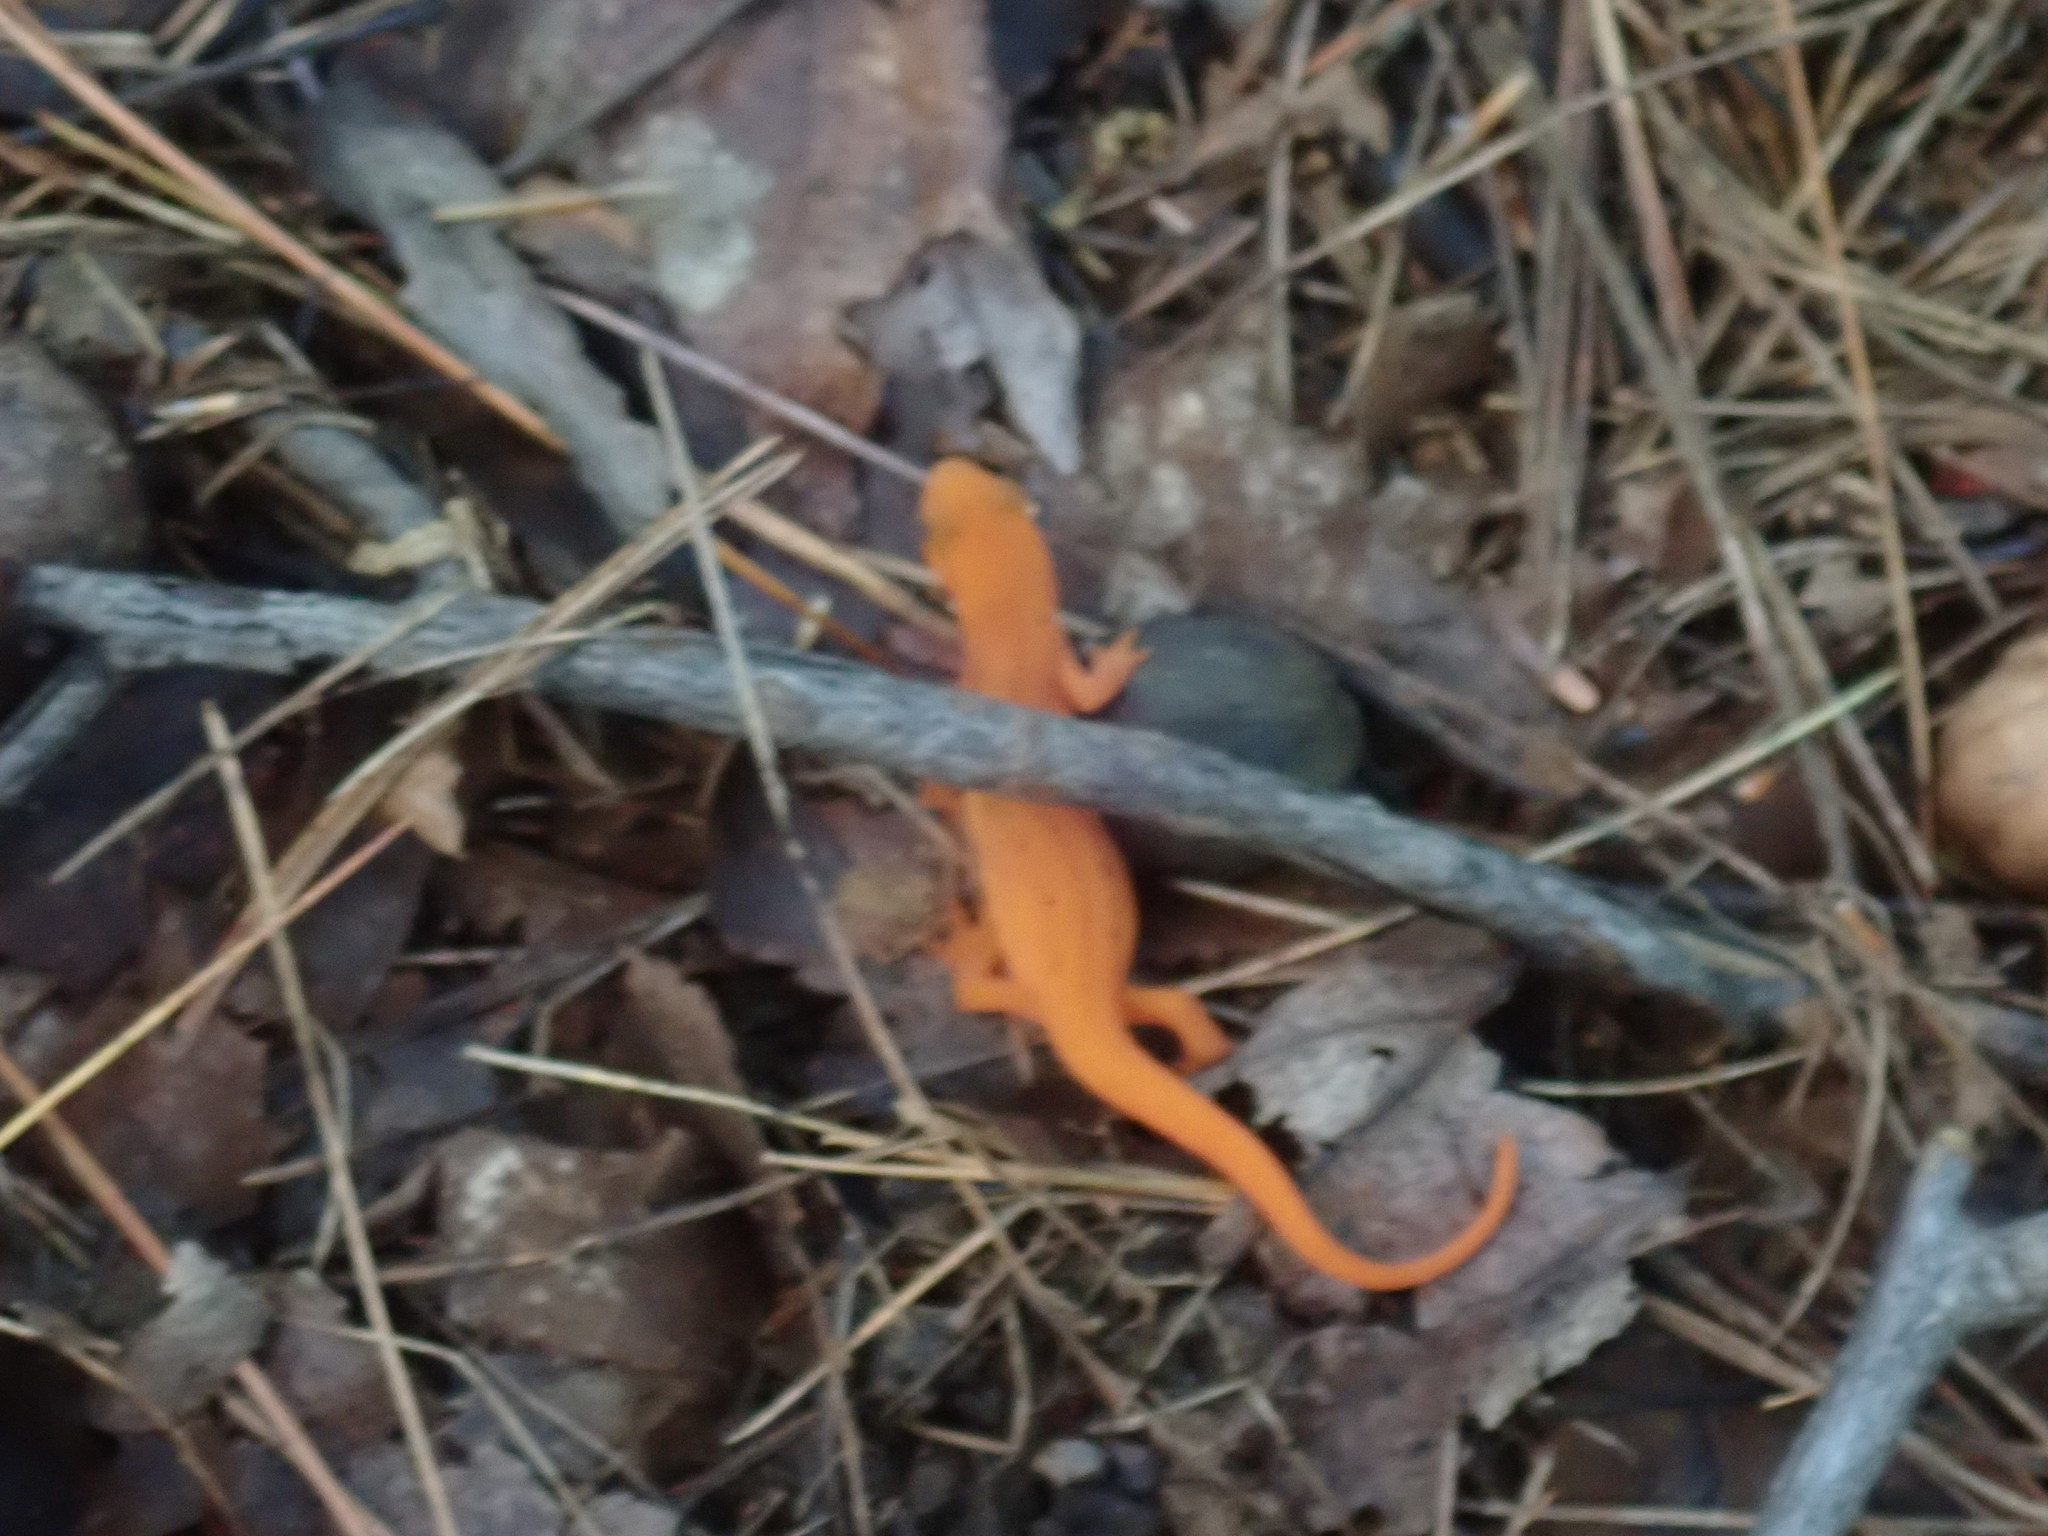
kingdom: Animalia
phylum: Chordata
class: Amphibia
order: Caudata
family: Salamandridae
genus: Notophthalmus
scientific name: Notophthalmus viridescens
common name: Eastern newt
